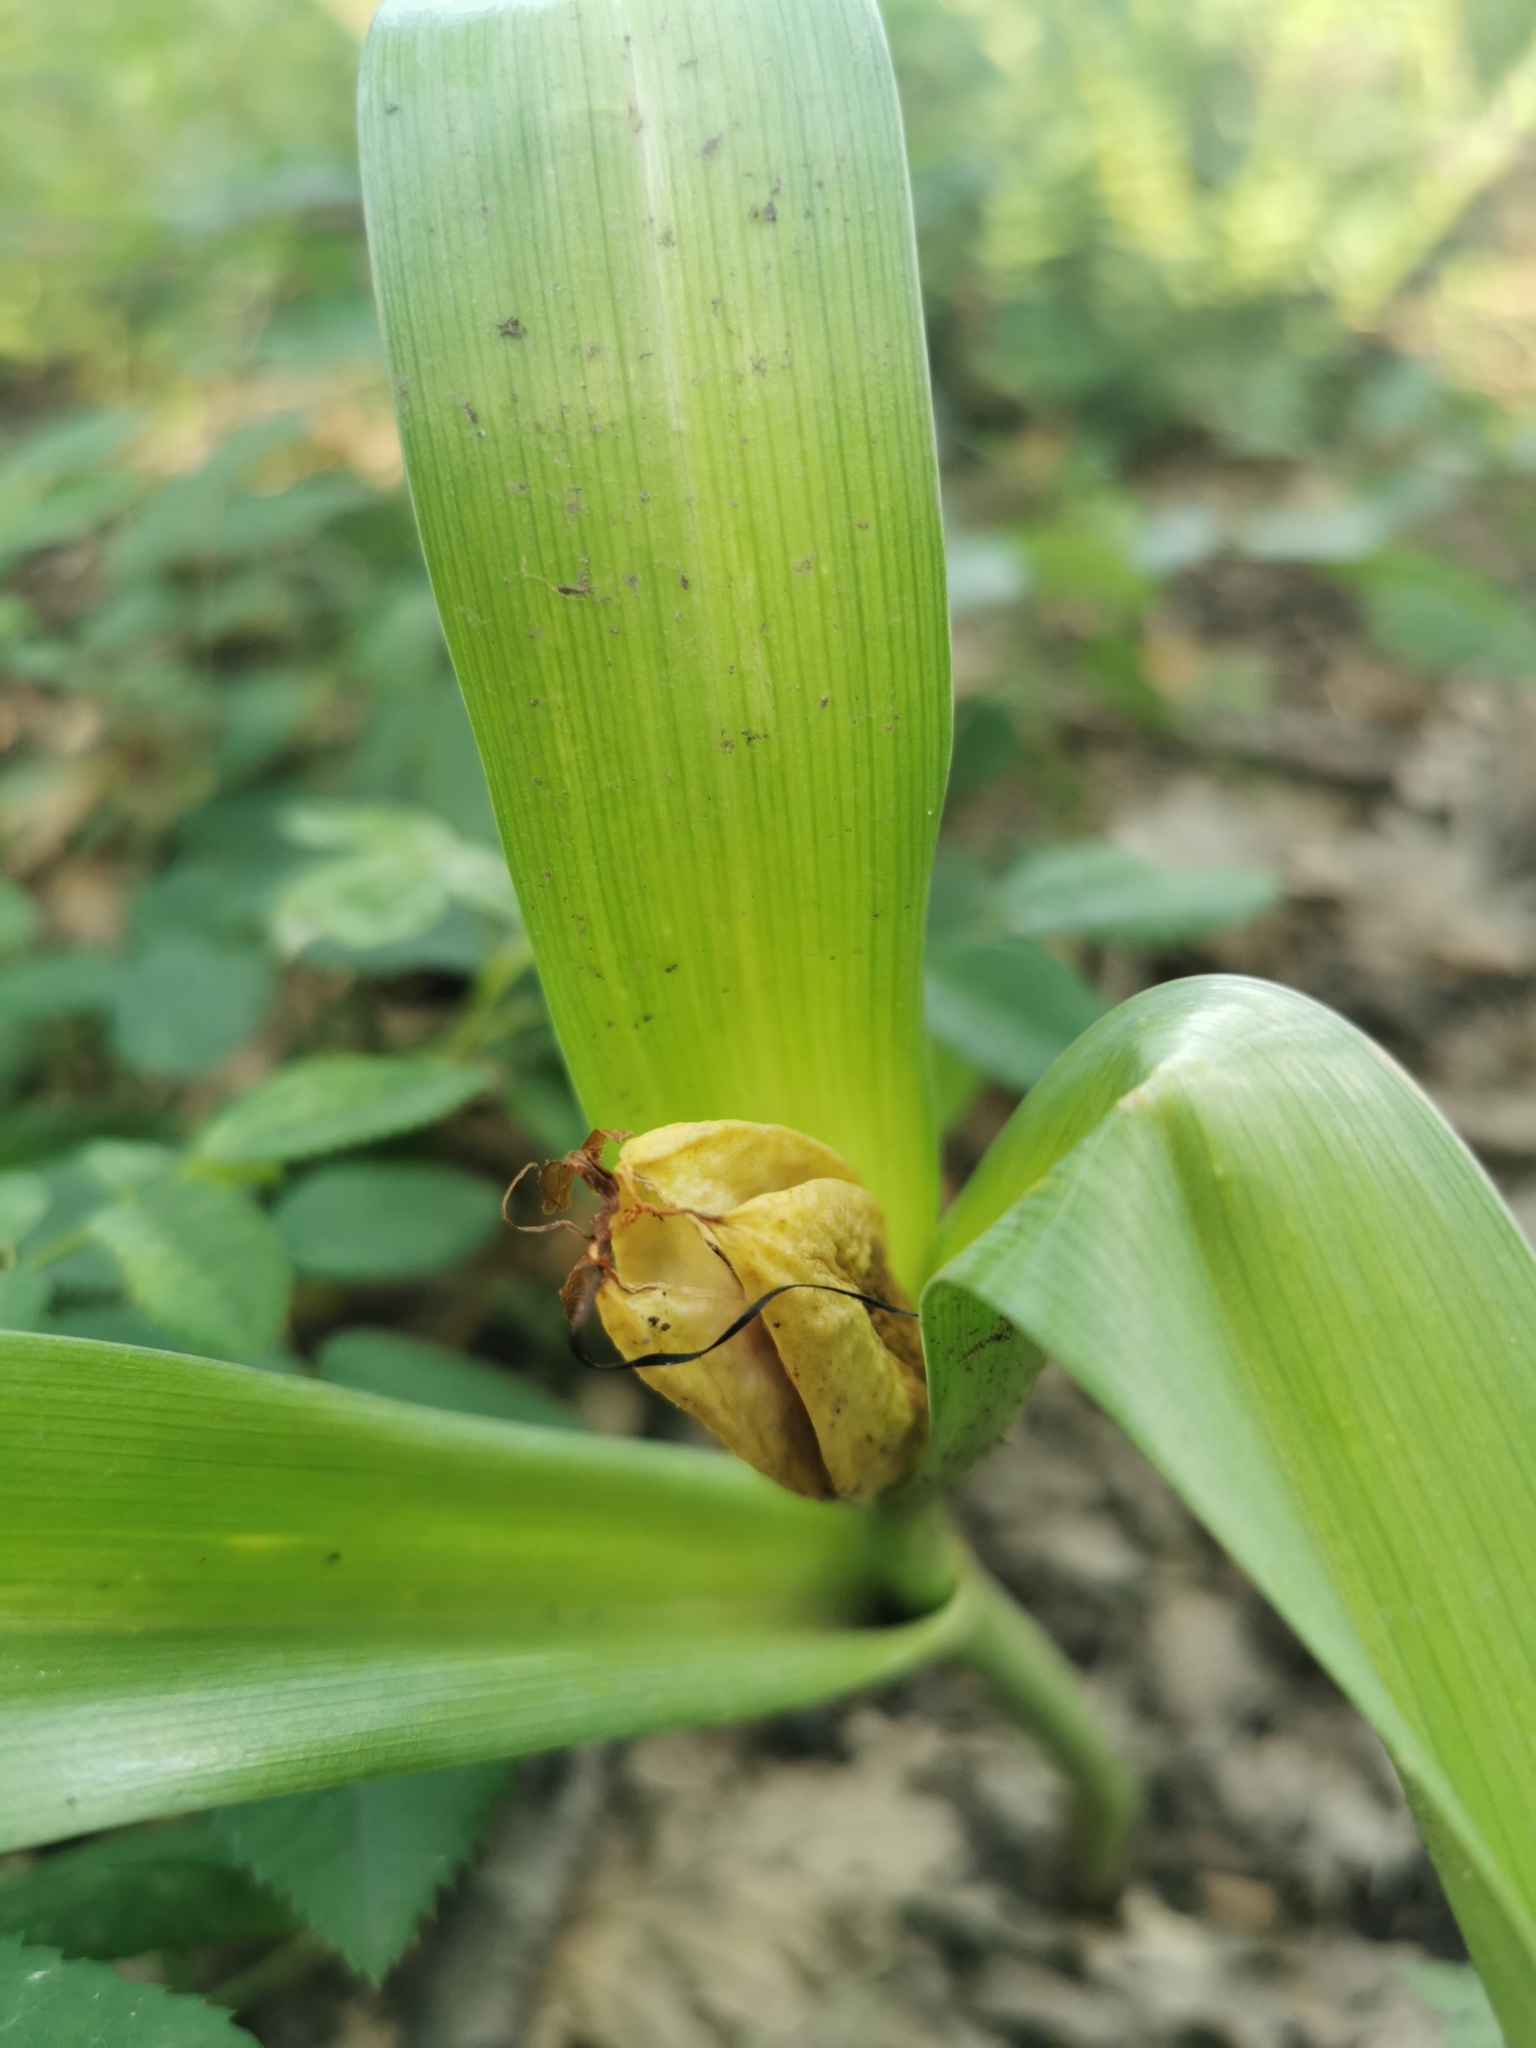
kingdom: Plantae
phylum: Tracheophyta
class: Liliopsida
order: Liliales
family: Colchicaceae
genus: Colchicum
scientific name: Colchicum autumnale
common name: Autumn crocus
